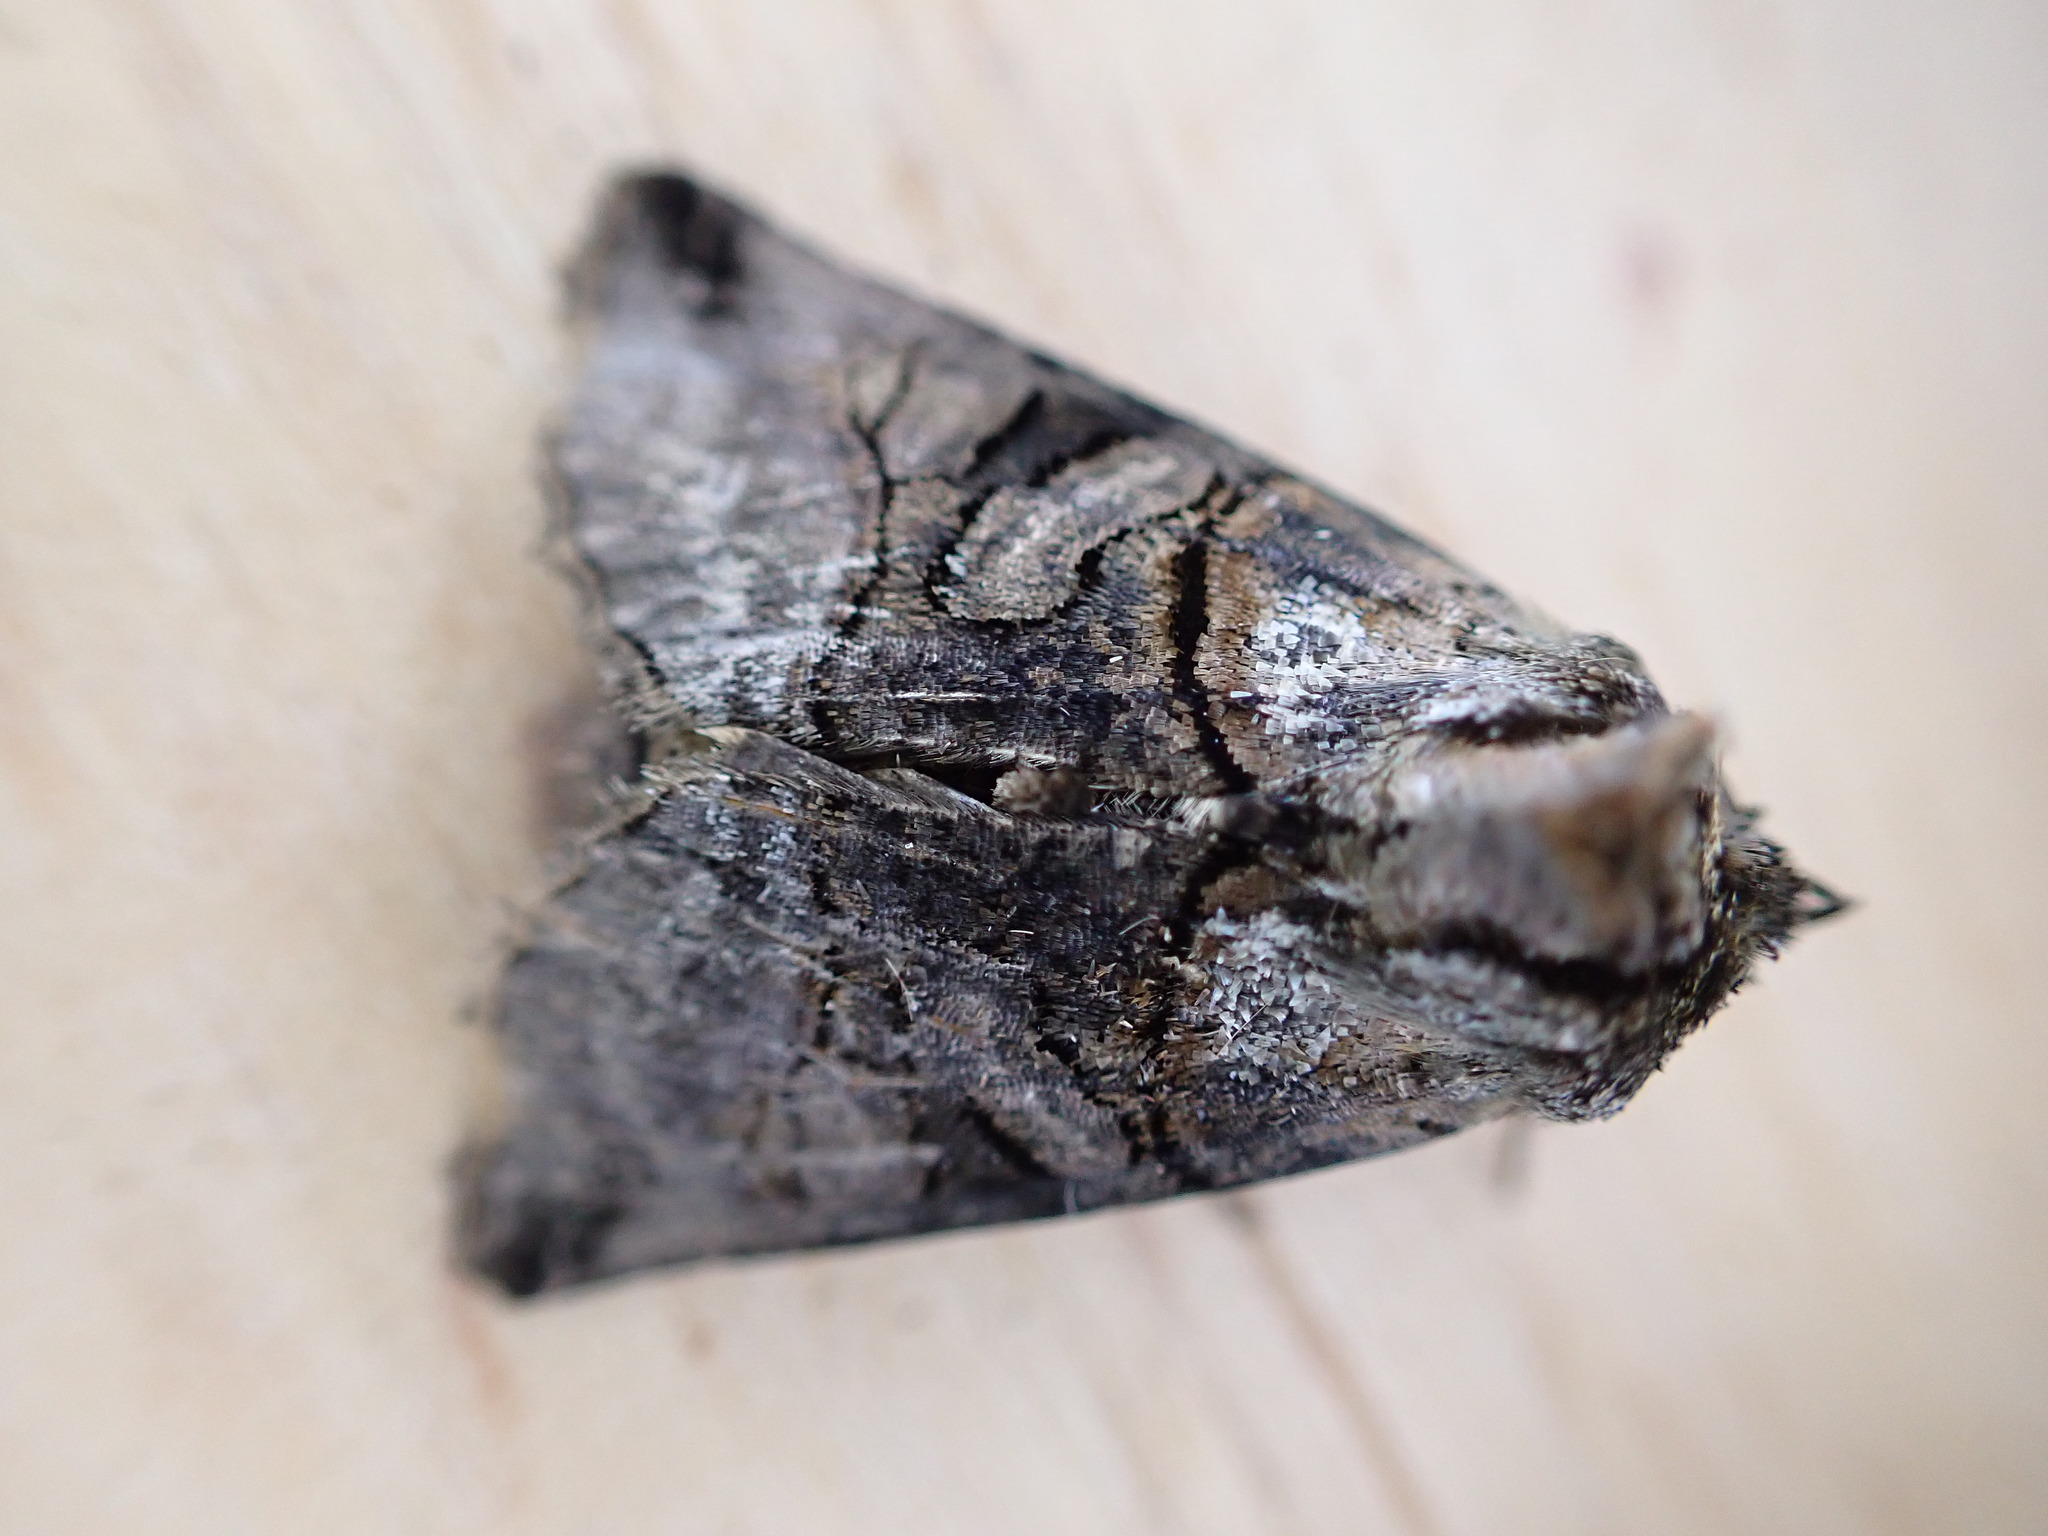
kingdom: Animalia
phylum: Arthropoda
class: Insecta
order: Lepidoptera
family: Noctuidae
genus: Abrostola
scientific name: Abrostola tripartita
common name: Spectacle
